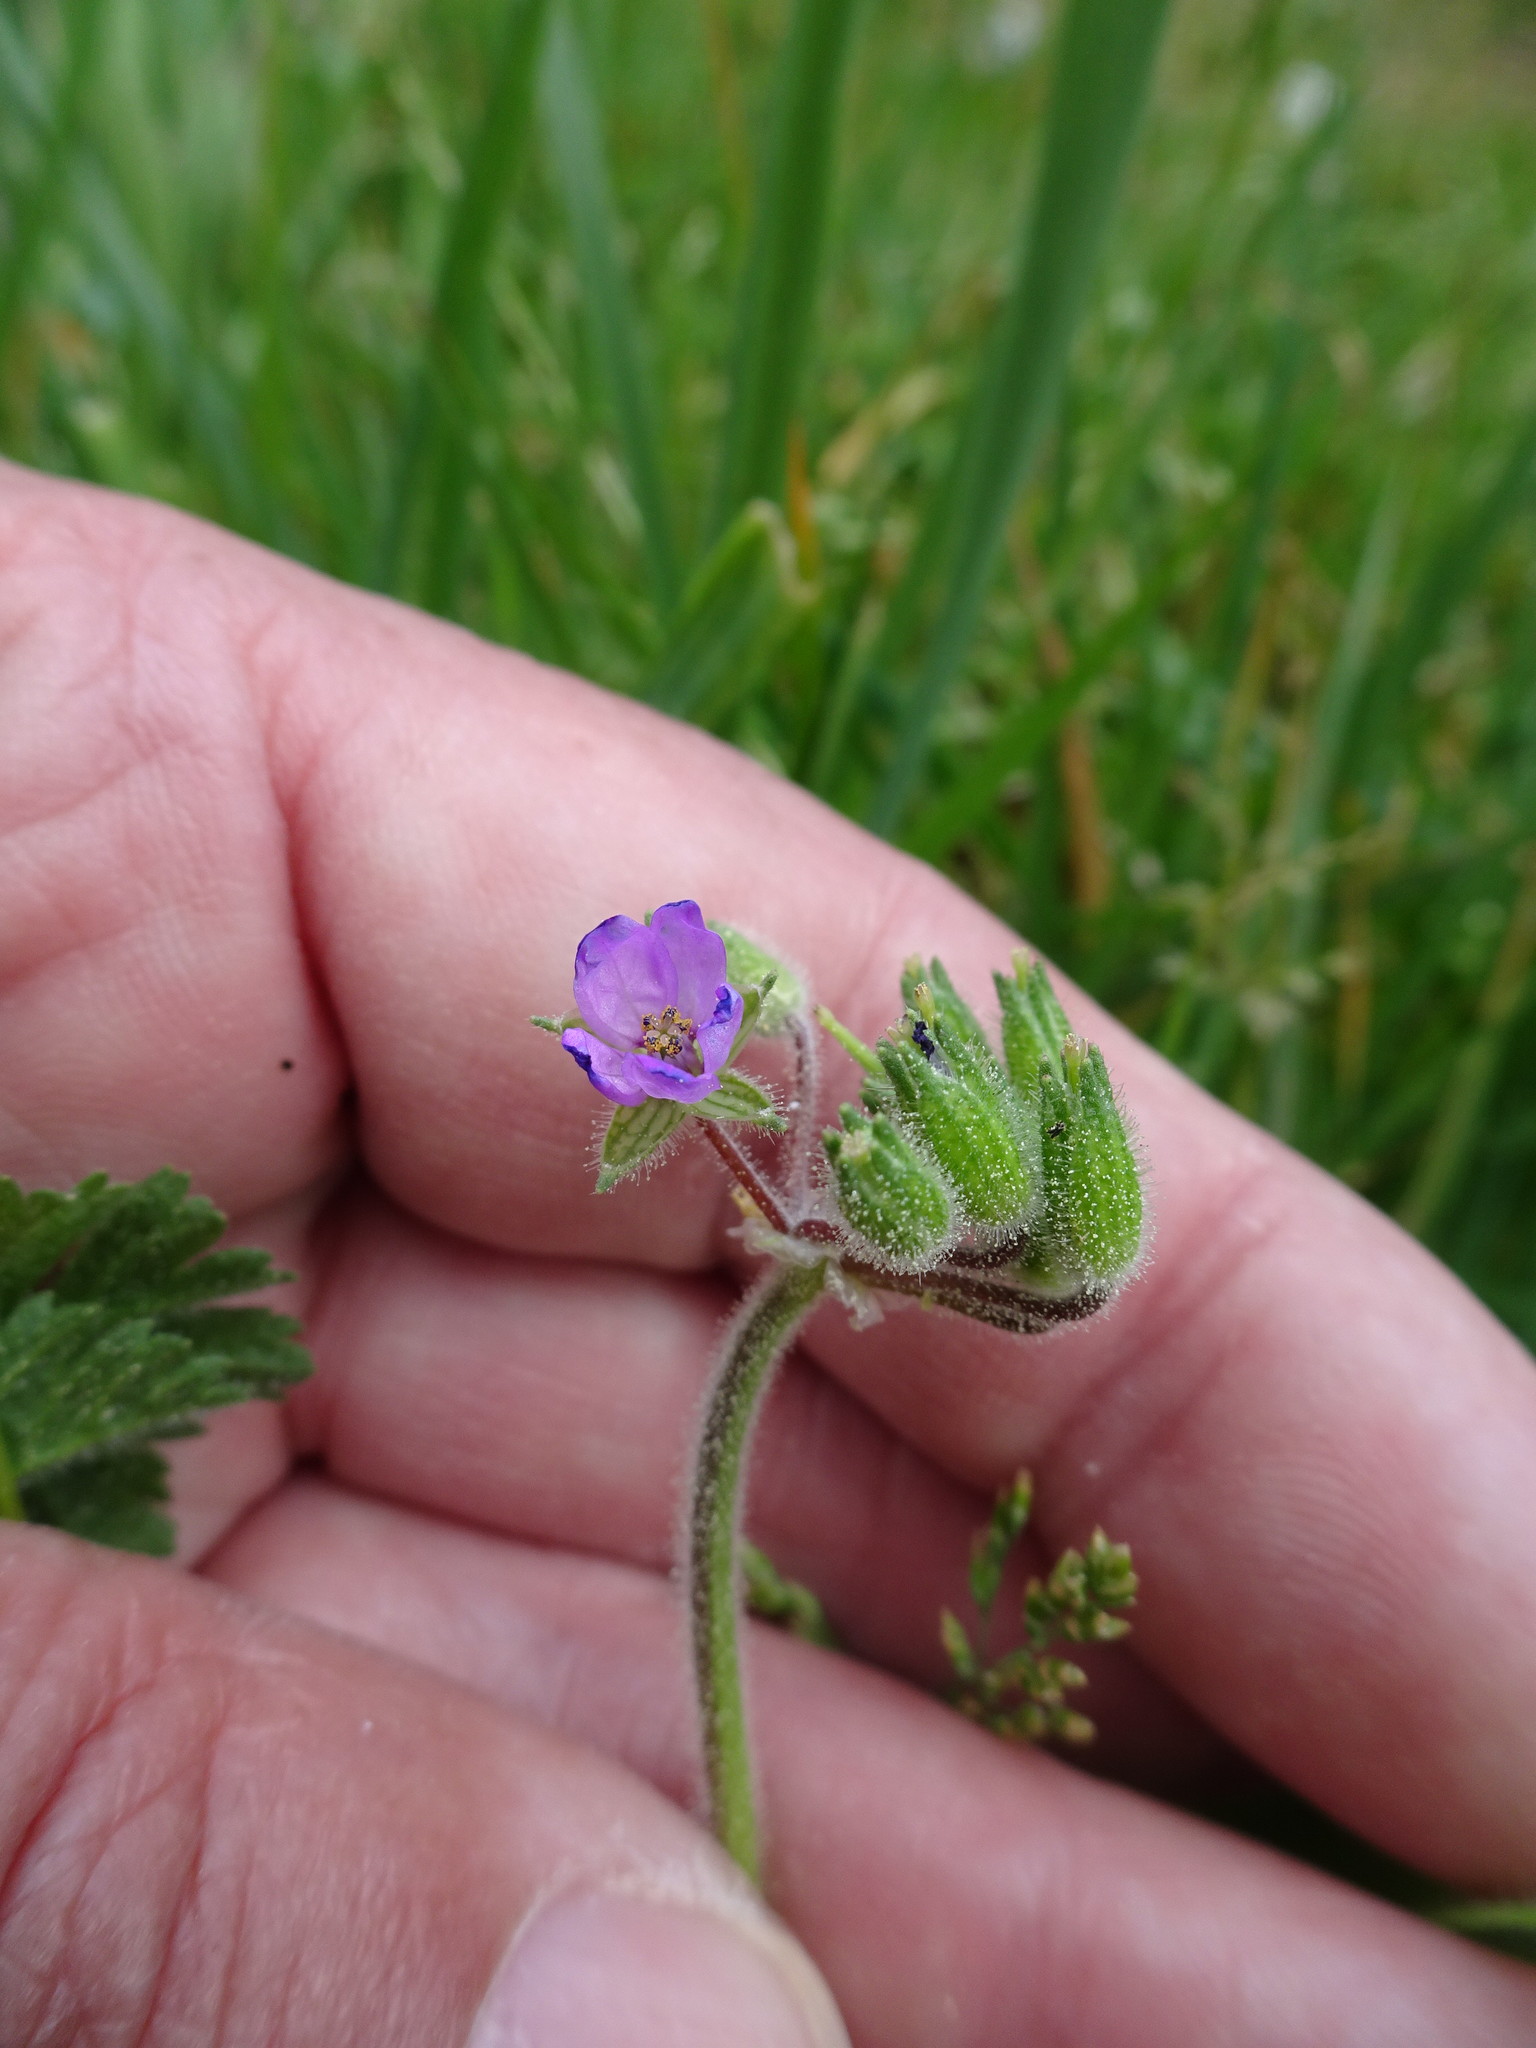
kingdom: Plantae
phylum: Tracheophyta
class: Magnoliopsida
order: Geraniales
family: Geraniaceae
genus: Erodium
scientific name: Erodium moschatum
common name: Musk stork's-bill
